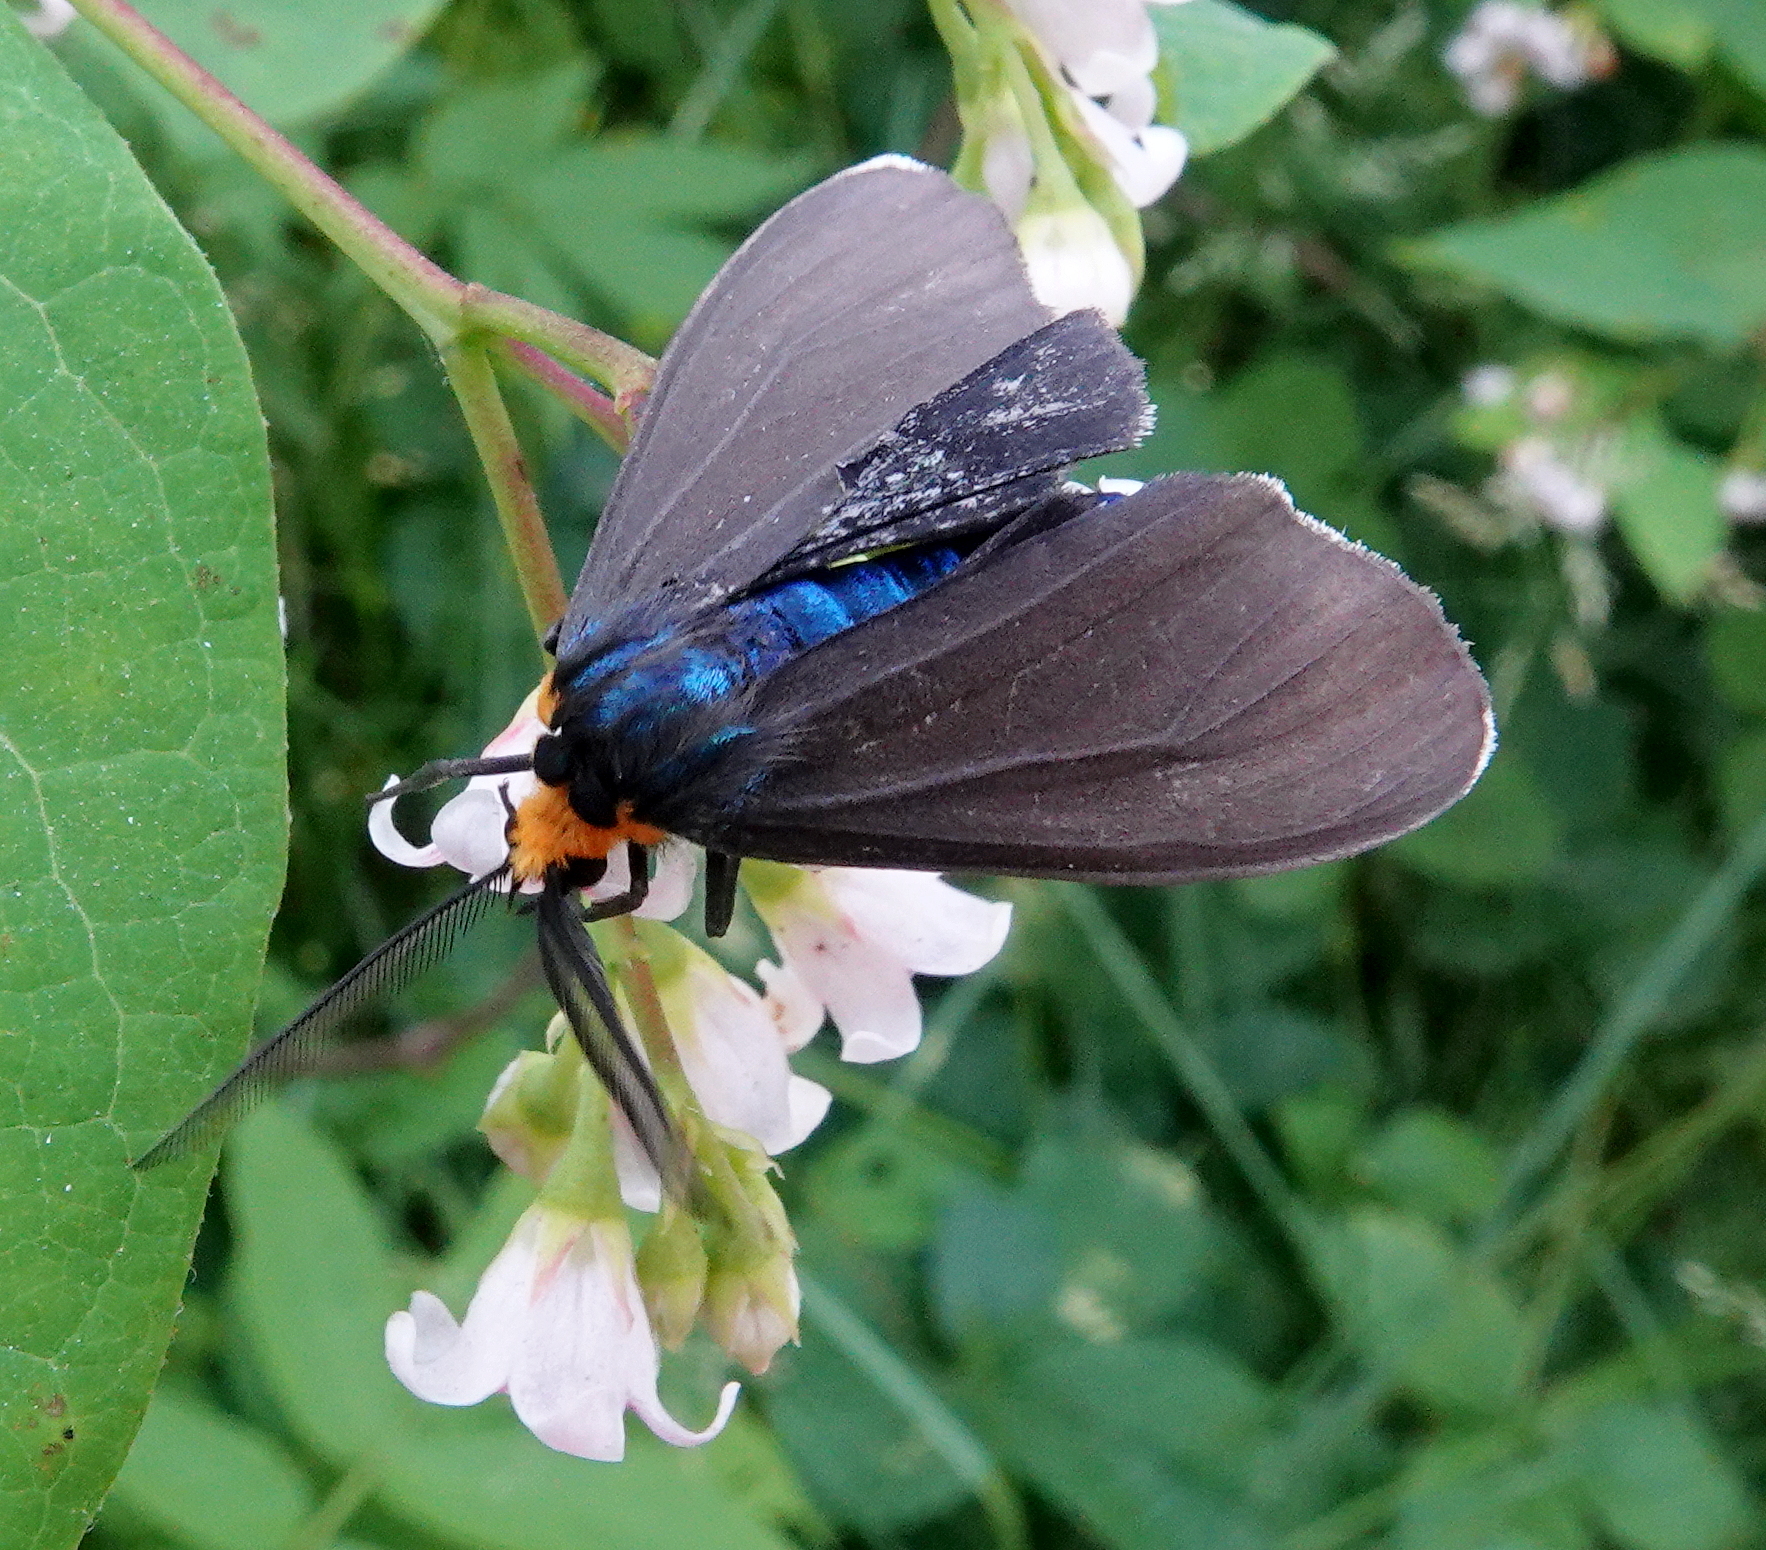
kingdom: Animalia
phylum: Arthropoda
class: Insecta
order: Lepidoptera
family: Erebidae
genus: Ctenucha
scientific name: Ctenucha virginica
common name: Virginia ctenucha moth
